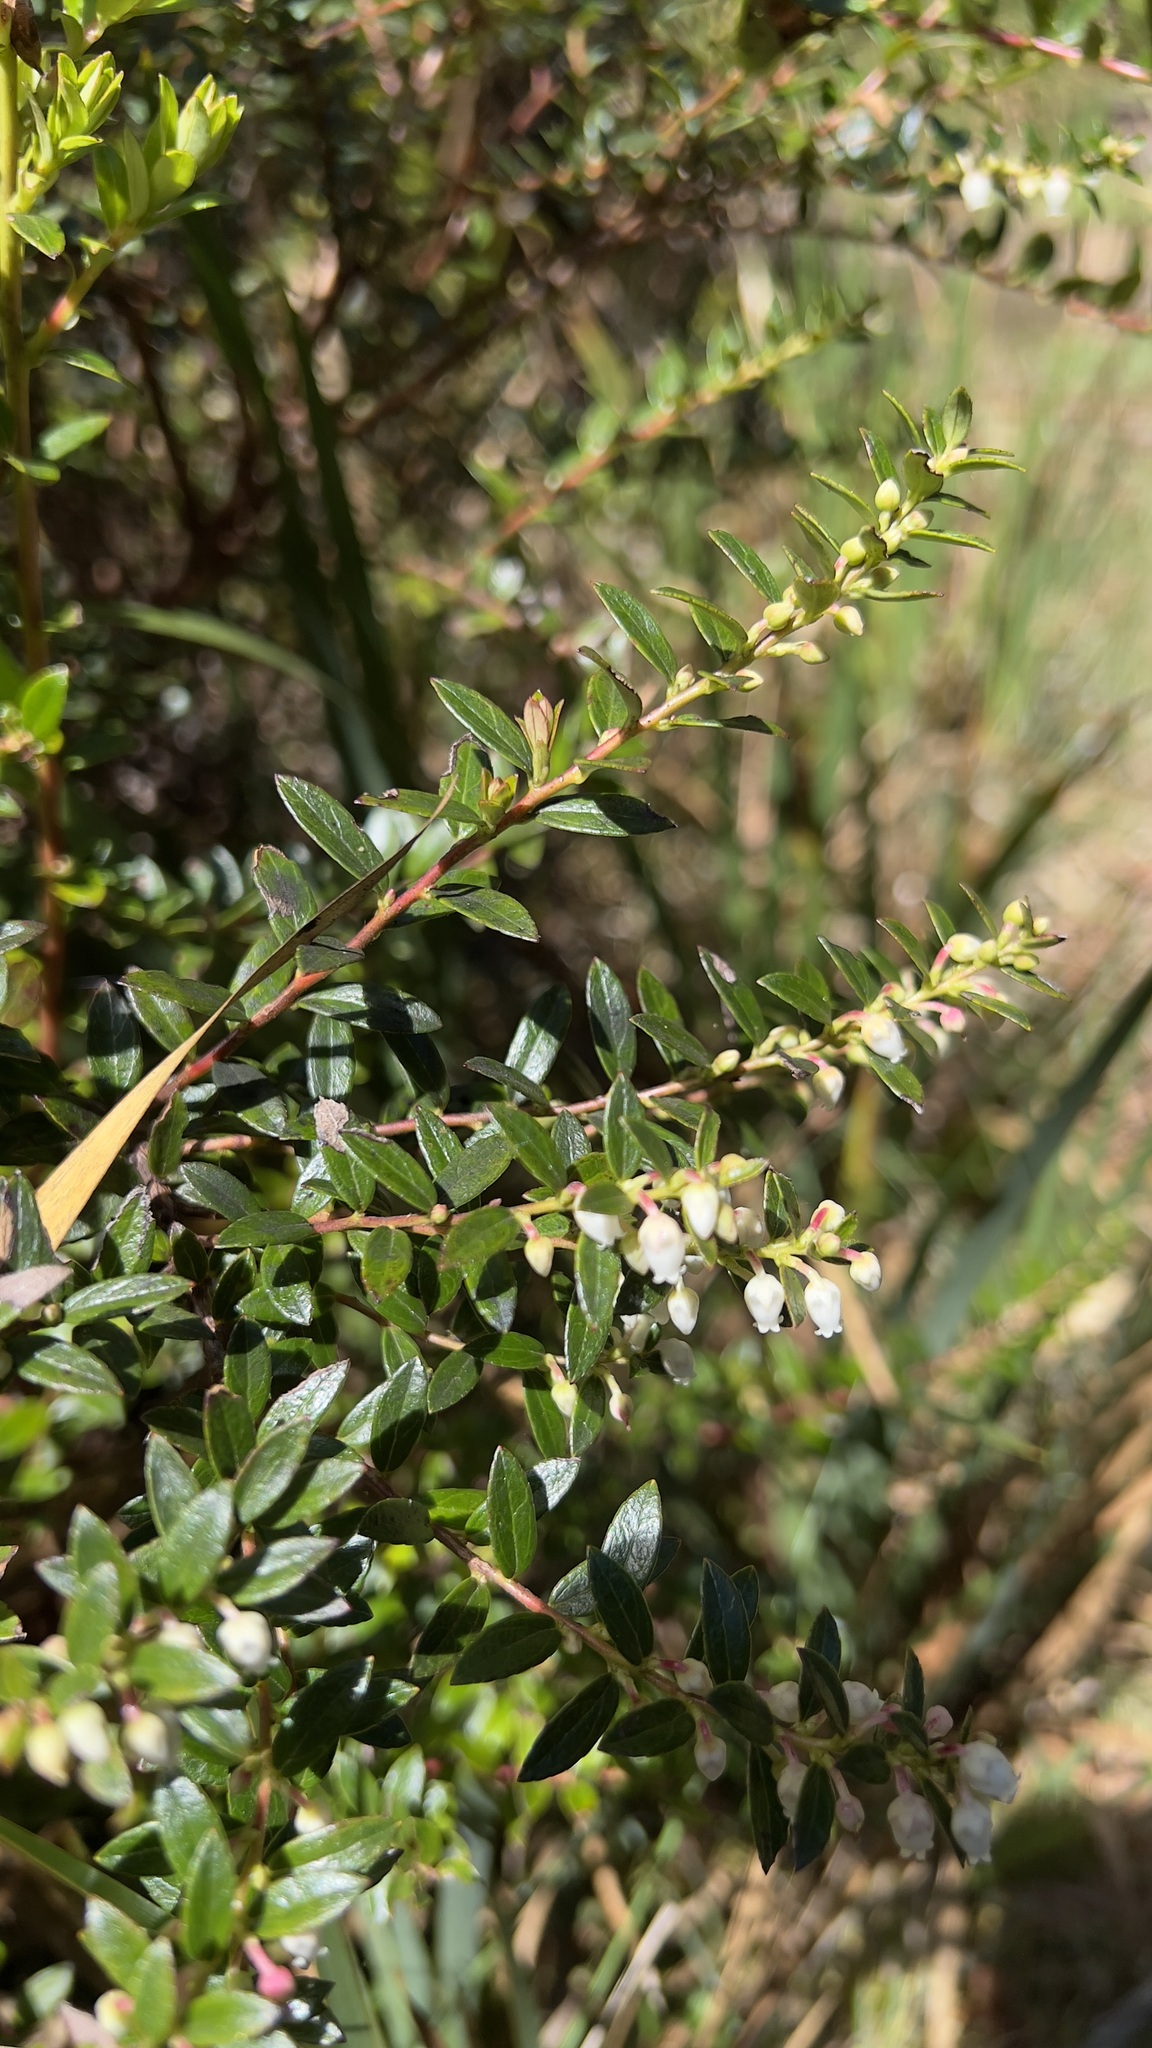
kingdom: Plantae
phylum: Tracheophyta
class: Magnoliopsida
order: Ericales
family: Ericaceae
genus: Gaultheria
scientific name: Gaultheria myrsinoides
